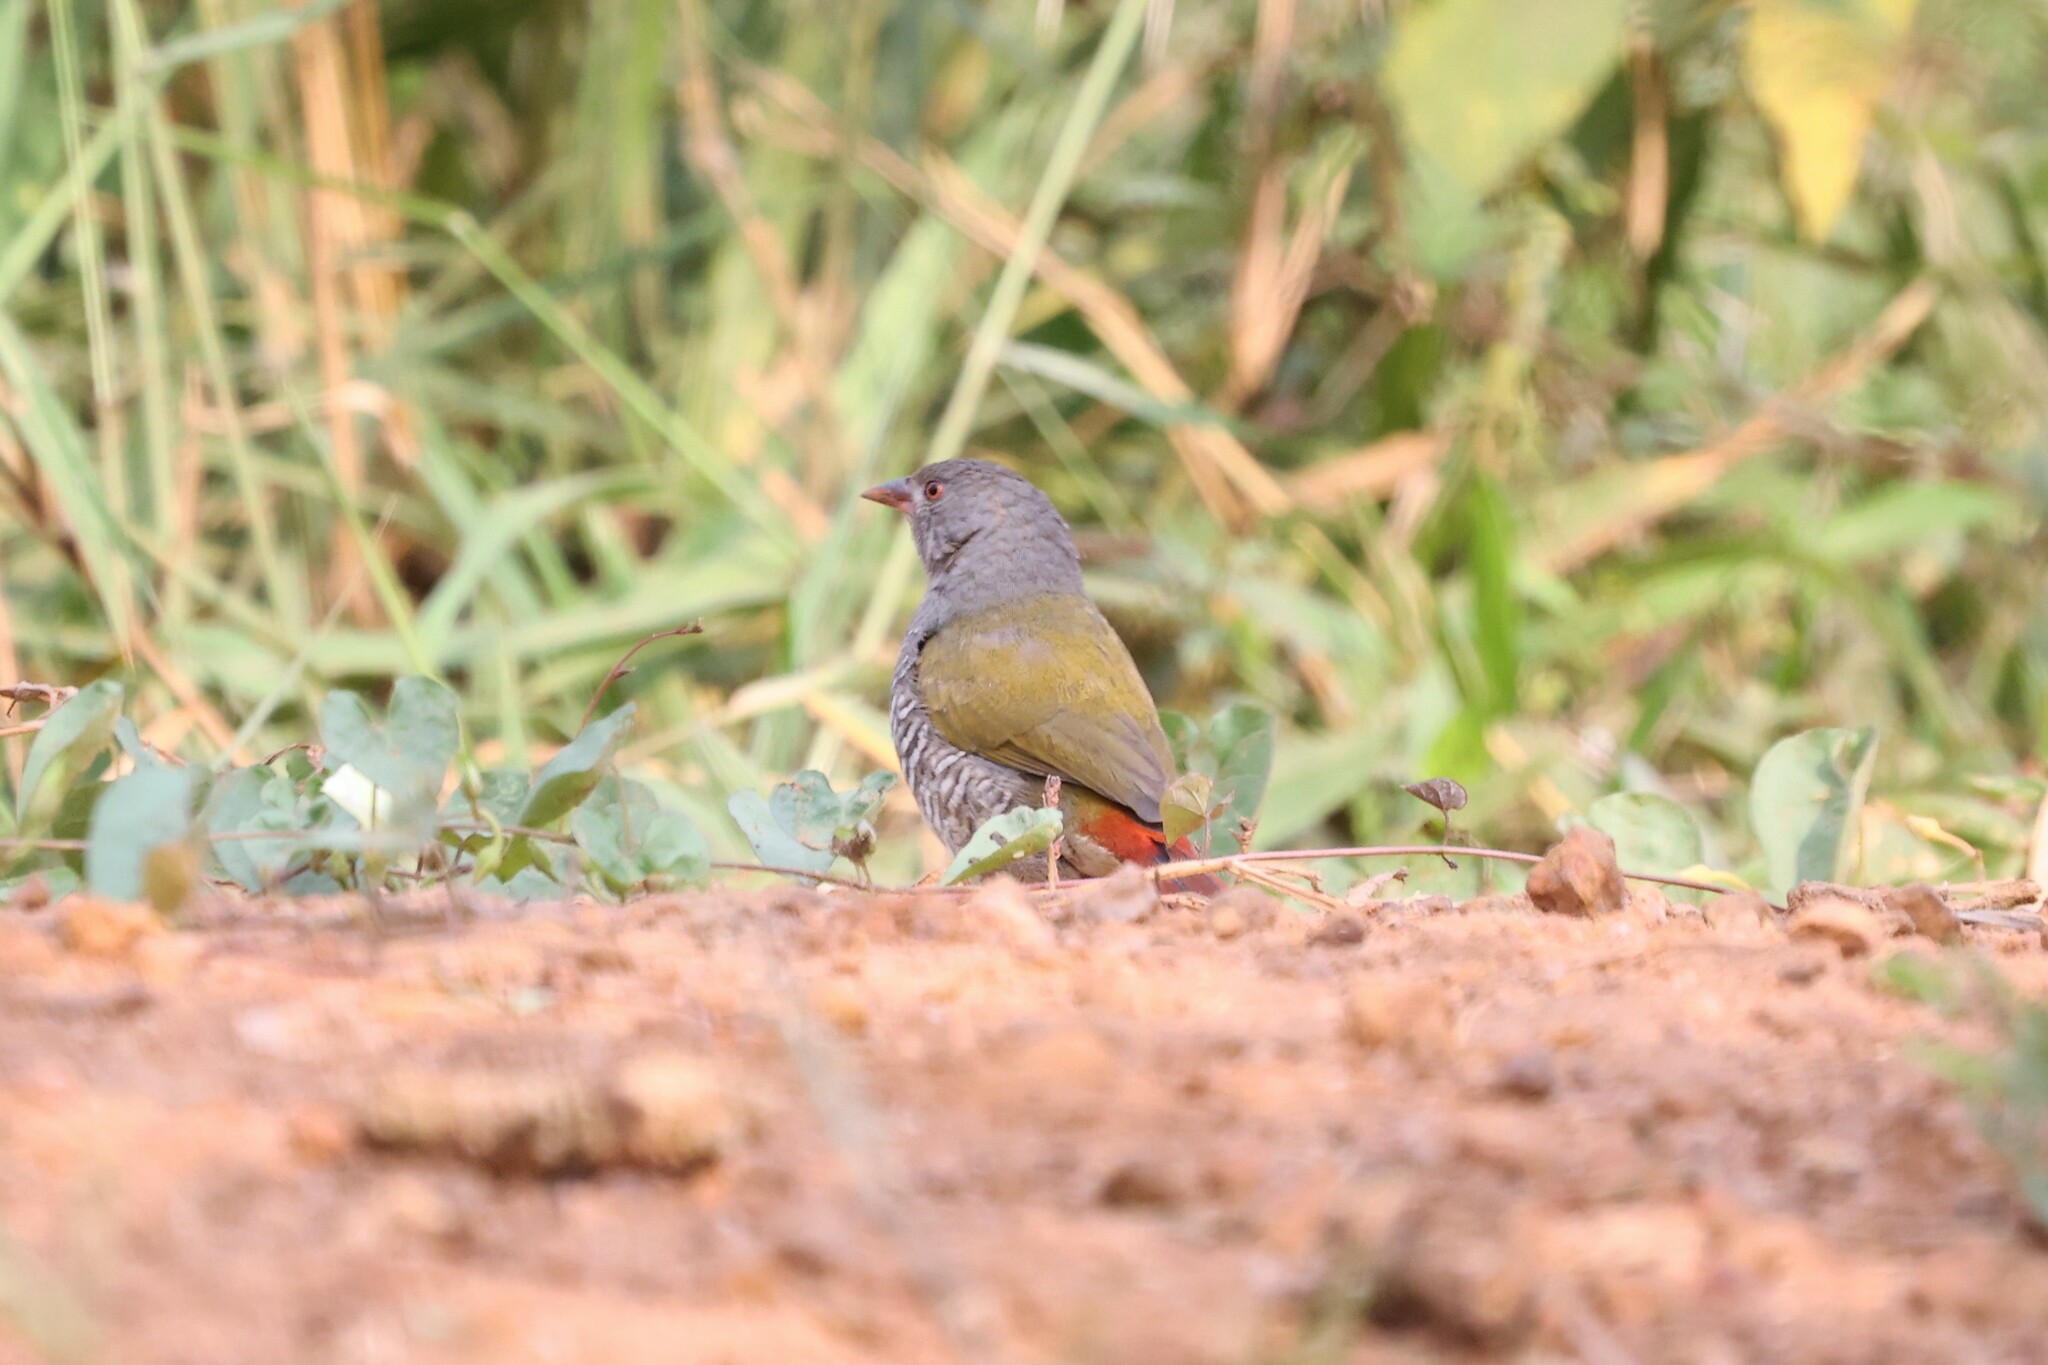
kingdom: Animalia
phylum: Chordata
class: Aves
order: Passeriformes
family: Estrildidae
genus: Pytilia
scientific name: Pytilia melba
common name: Green-winged pytilia
